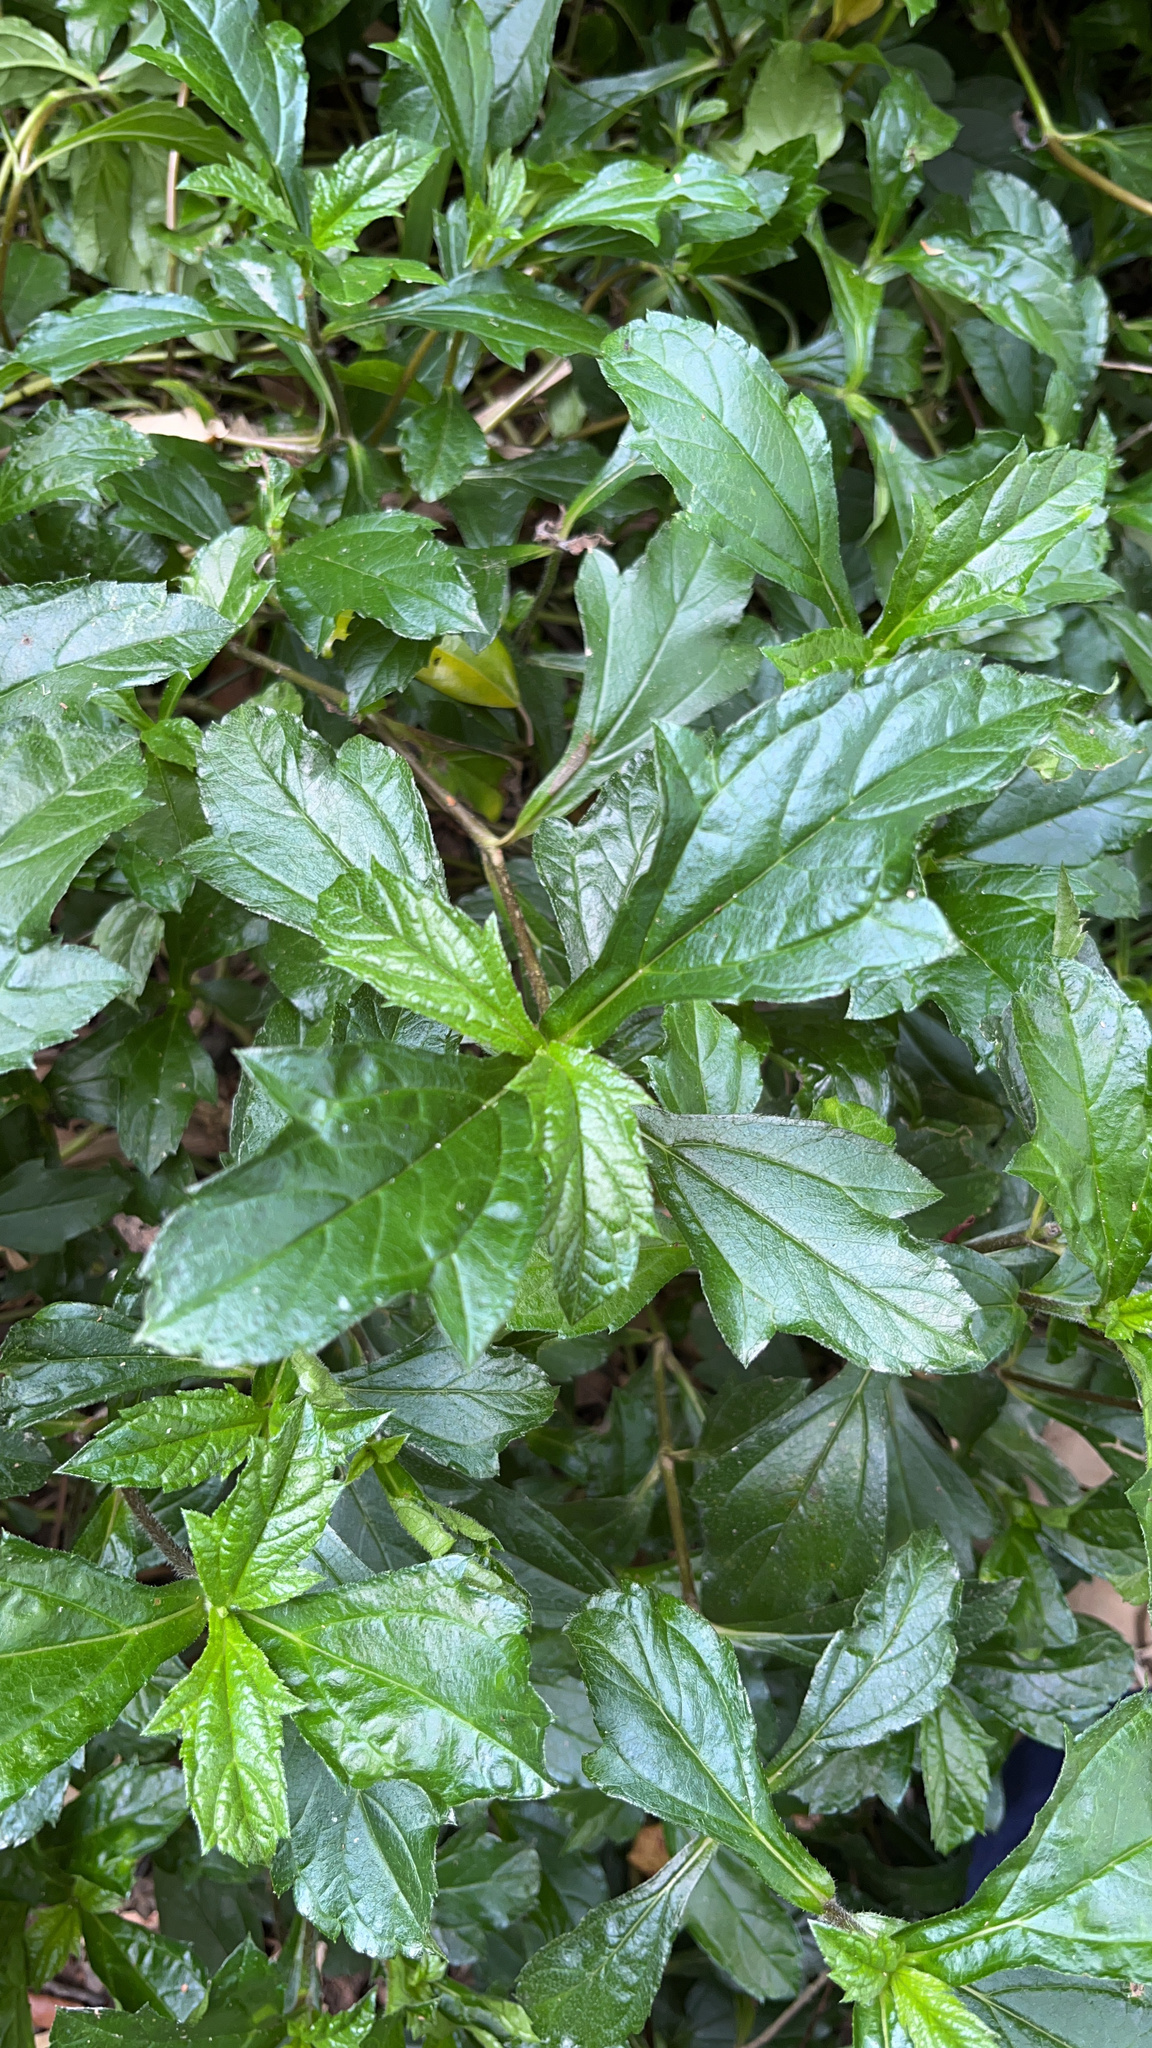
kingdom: Plantae
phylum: Tracheophyta
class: Magnoliopsida
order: Asterales
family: Asteraceae
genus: Sphagneticola
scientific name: Sphagneticola trilobata
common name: Bay biscayne creeping-oxeye
